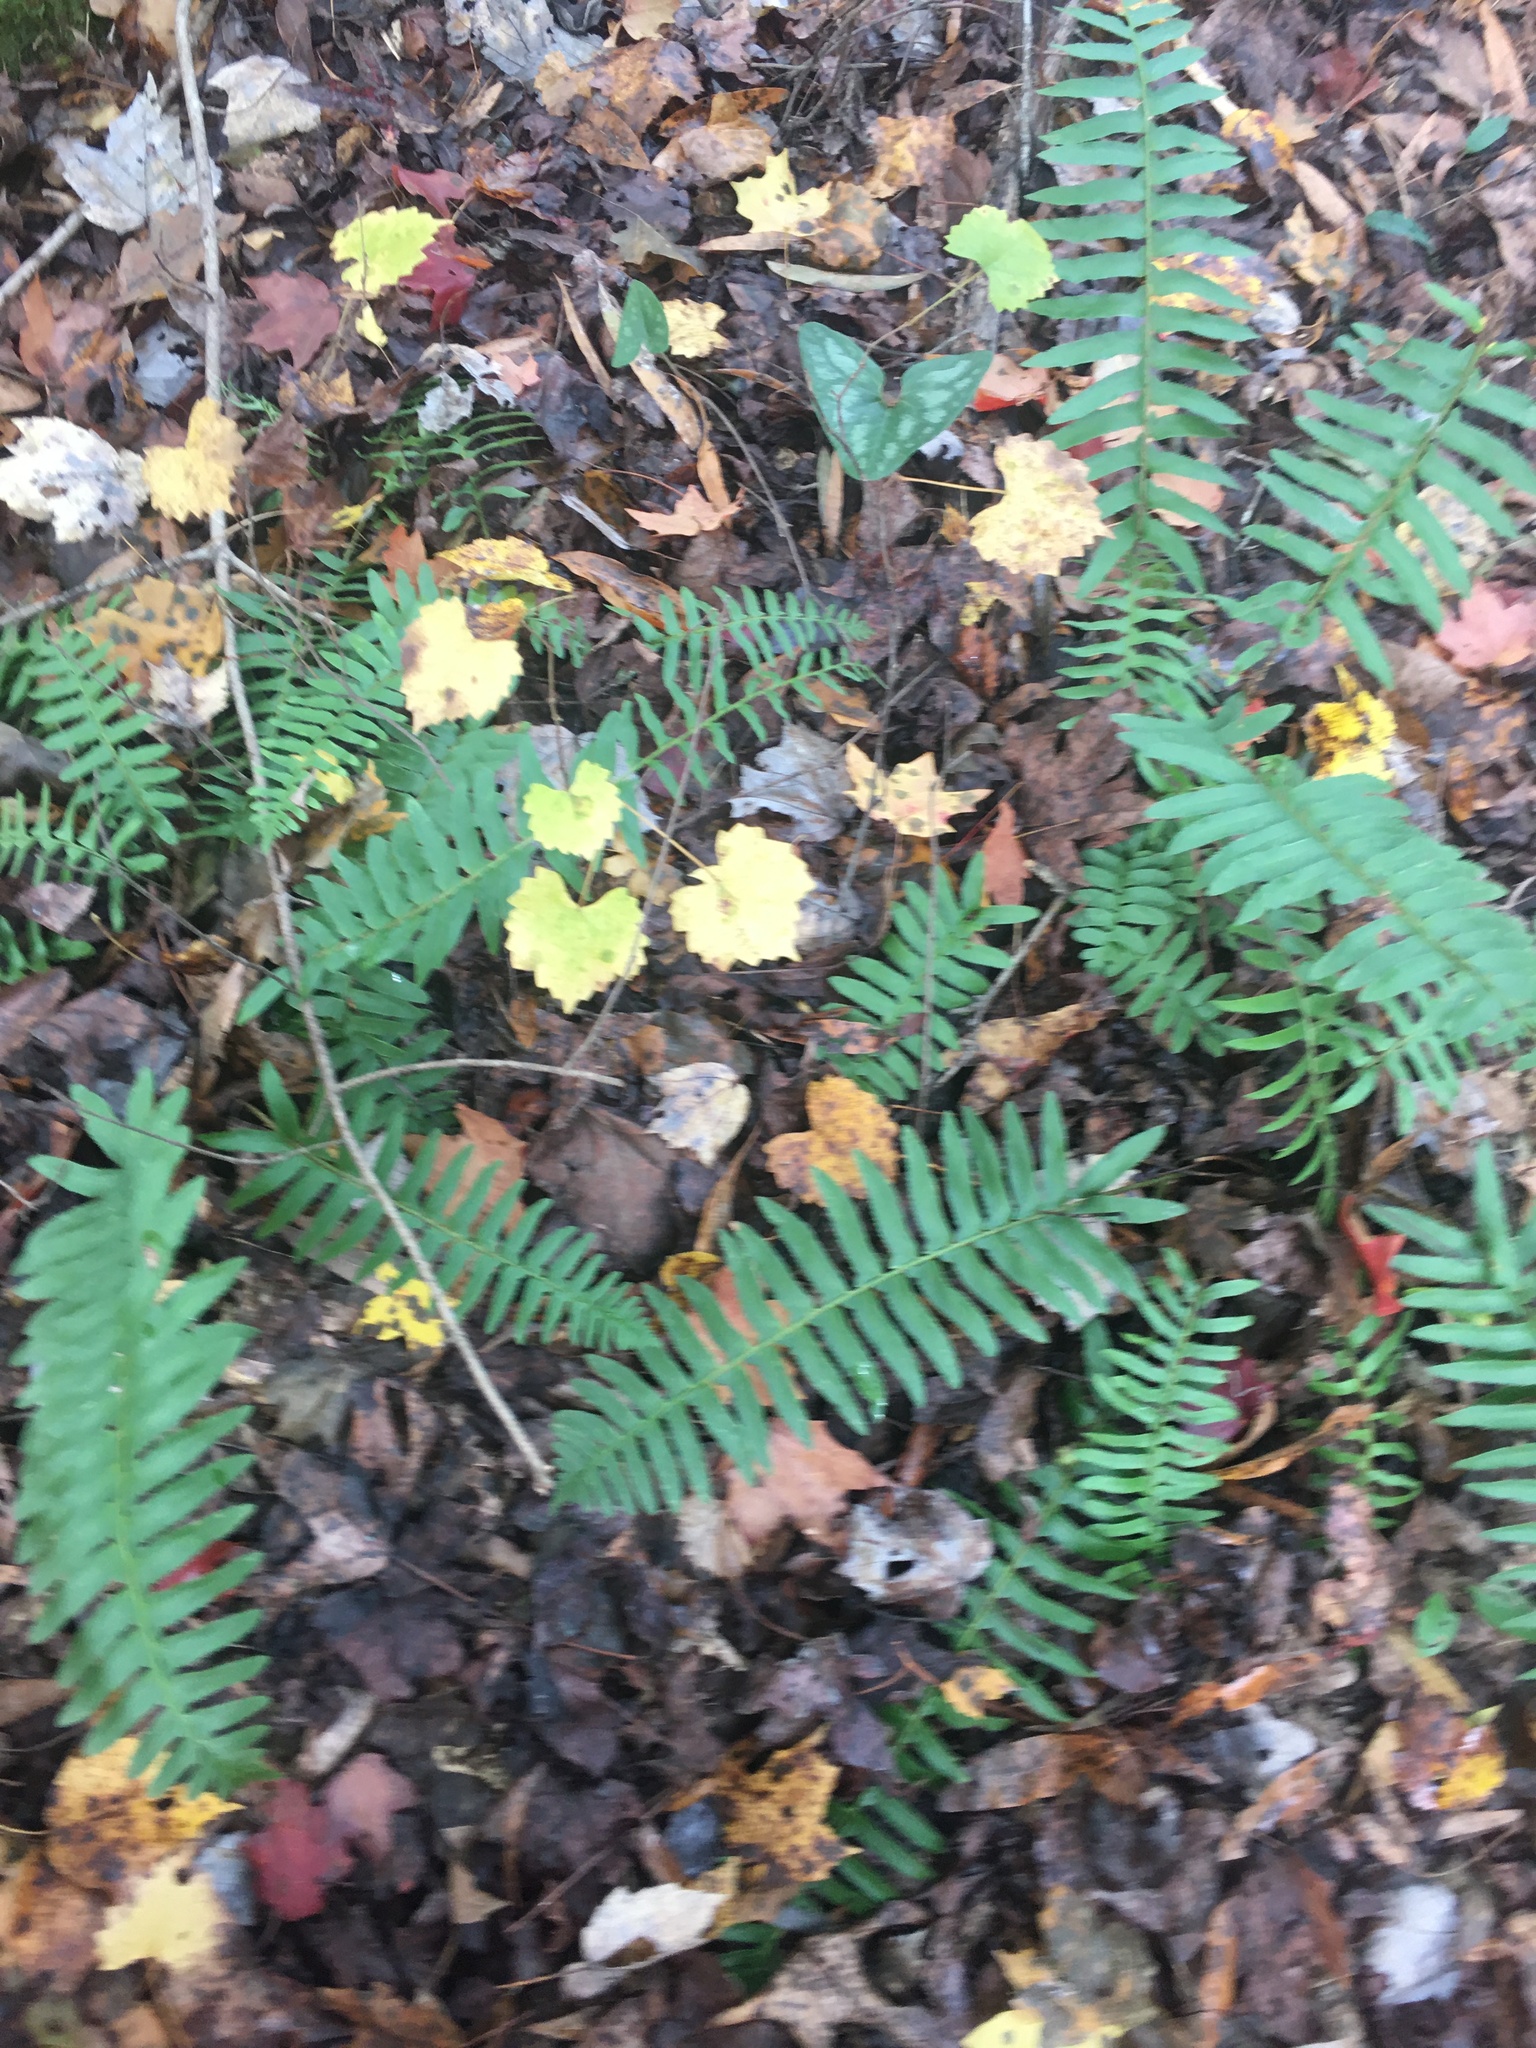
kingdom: Plantae
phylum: Tracheophyta
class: Polypodiopsida
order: Polypodiales
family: Dryopteridaceae
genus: Polystichum
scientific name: Polystichum acrostichoides
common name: Christmas fern
